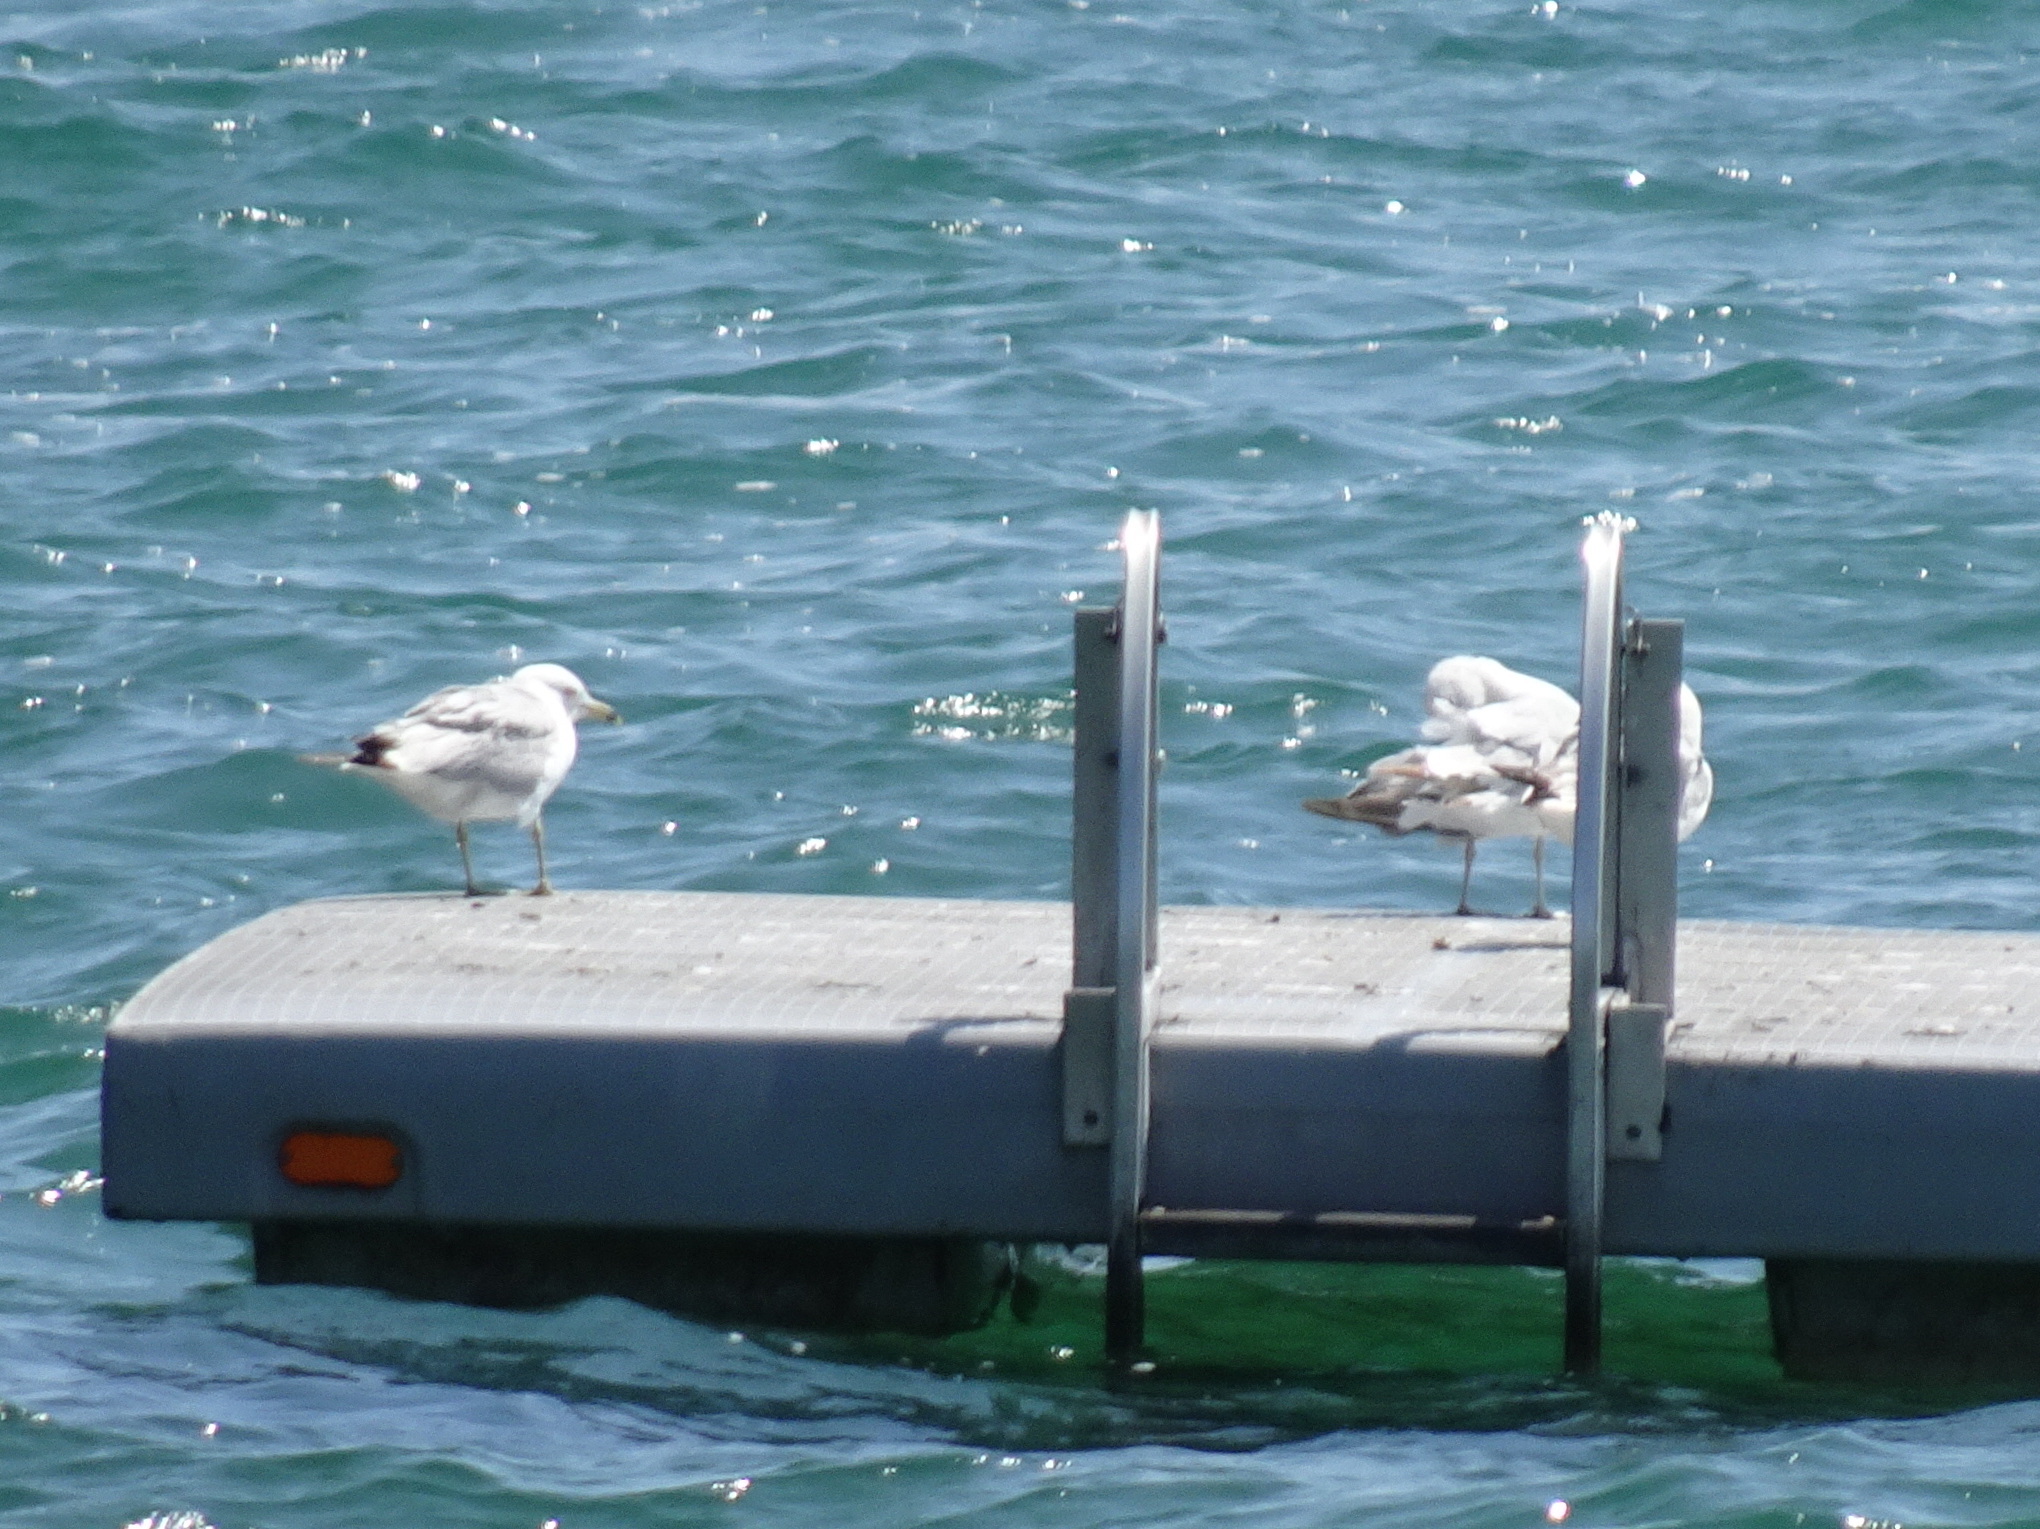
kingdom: Animalia
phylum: Chordata
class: Aves
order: Charadriiformes
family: Laridae
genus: Larus
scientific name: Larus delawarensis
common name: Ring-billed gull
